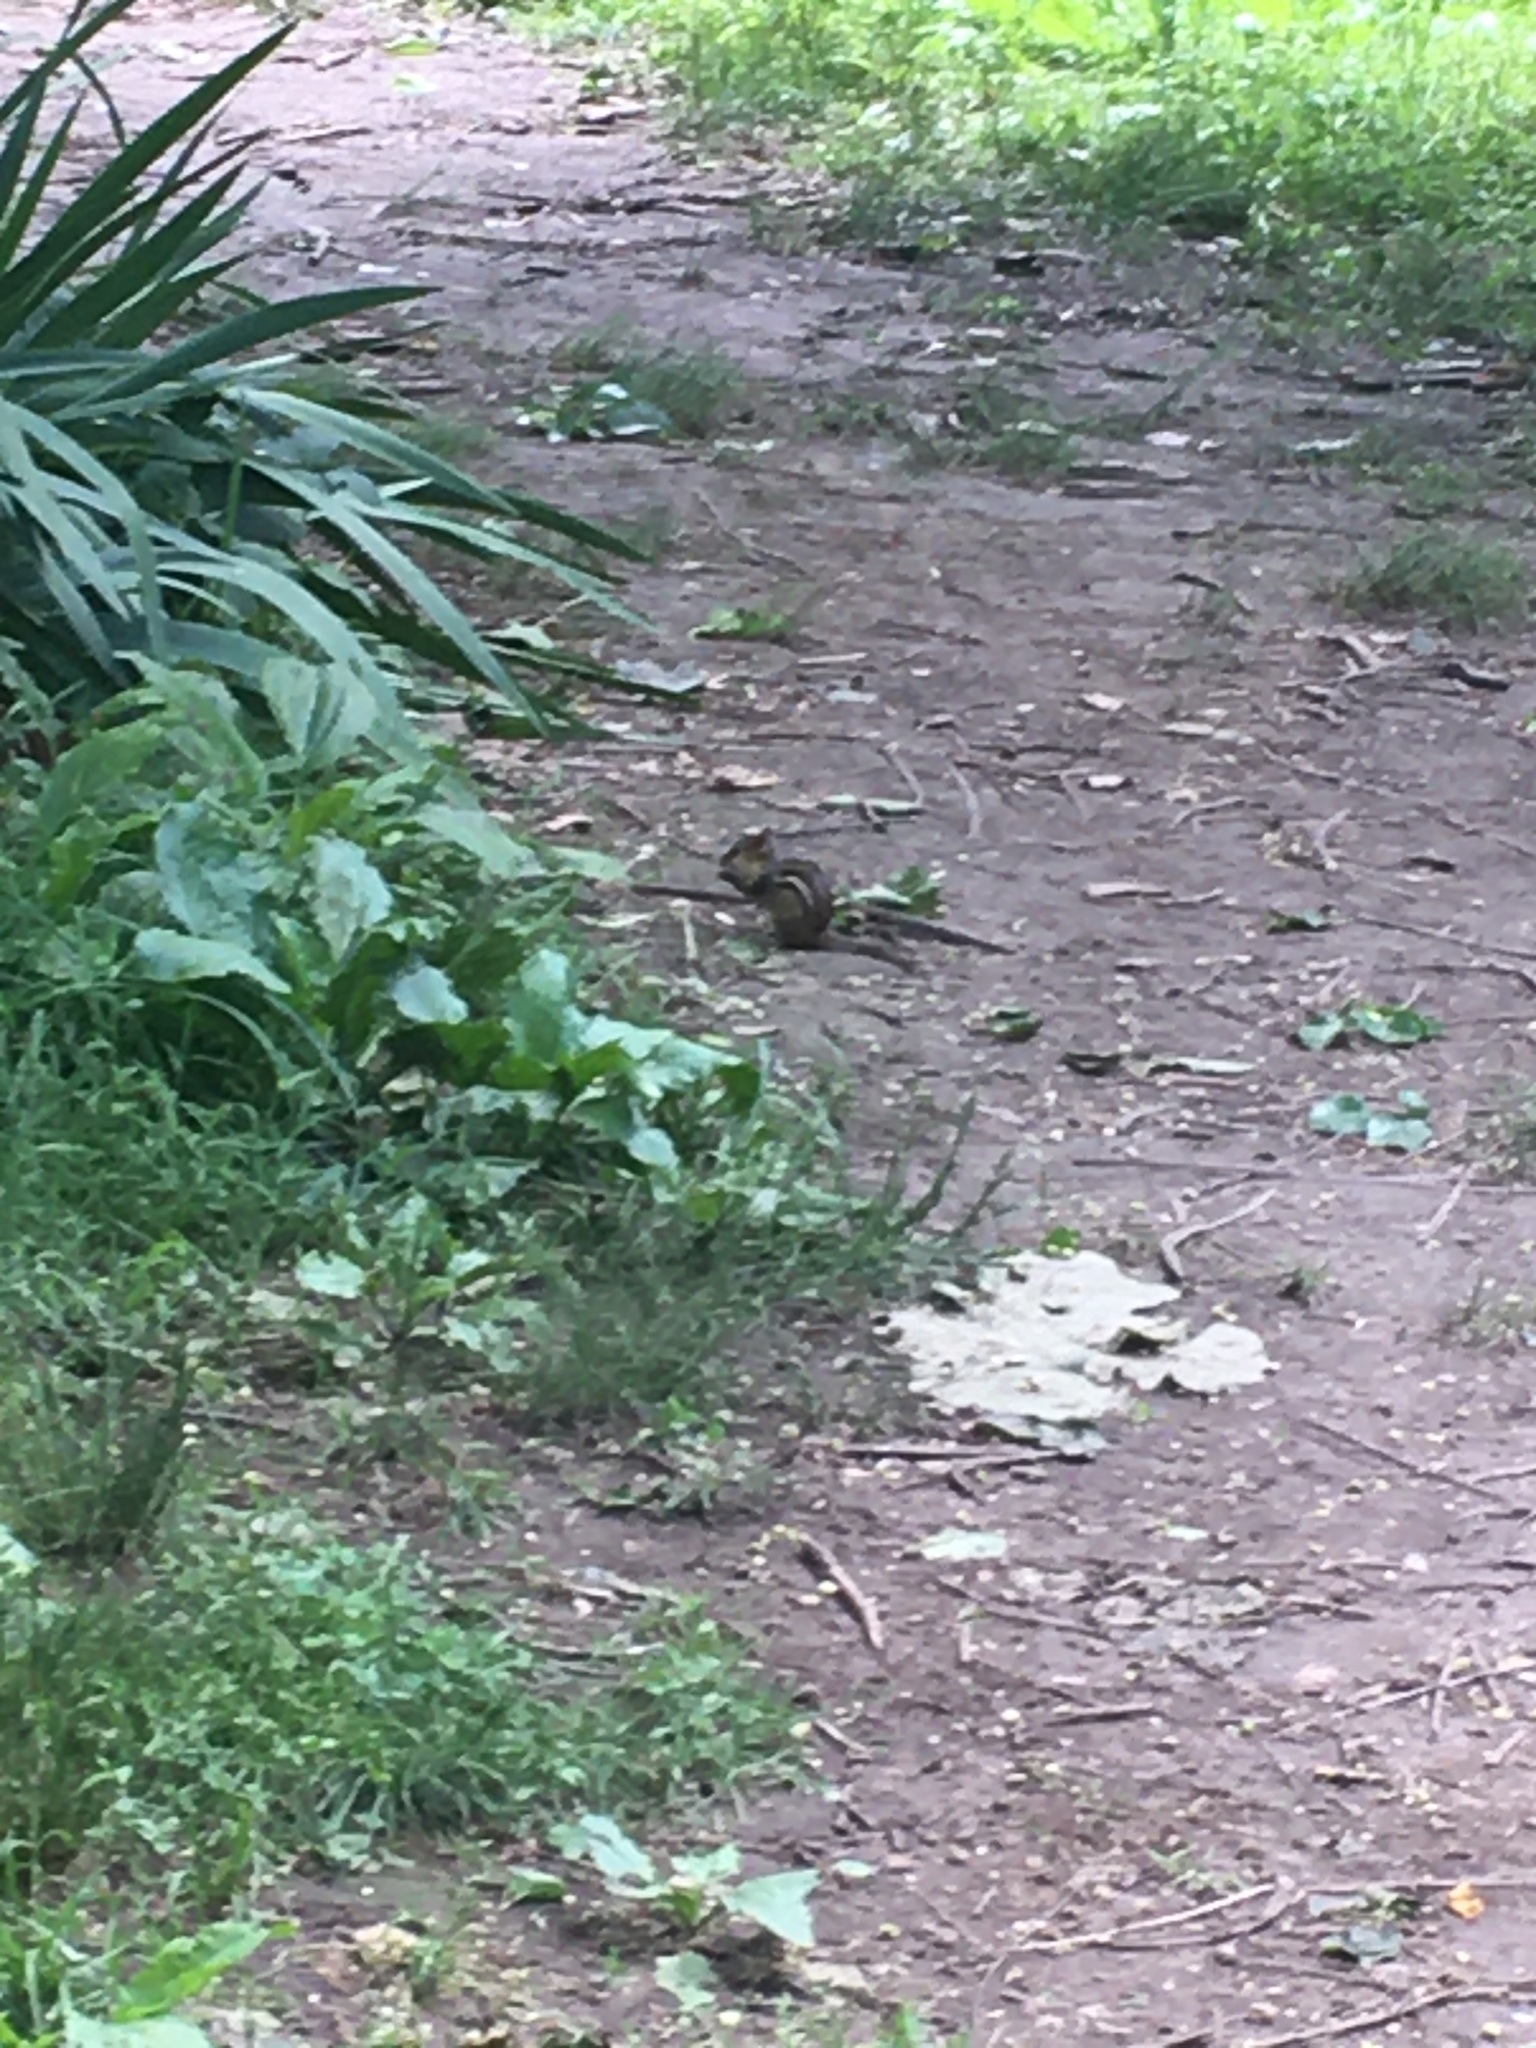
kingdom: Animalia
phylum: Chordata
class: Mammalia
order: Rodentia
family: Sciuridae
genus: Tamias
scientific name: Tamias striatus
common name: Eastern chipmunk
